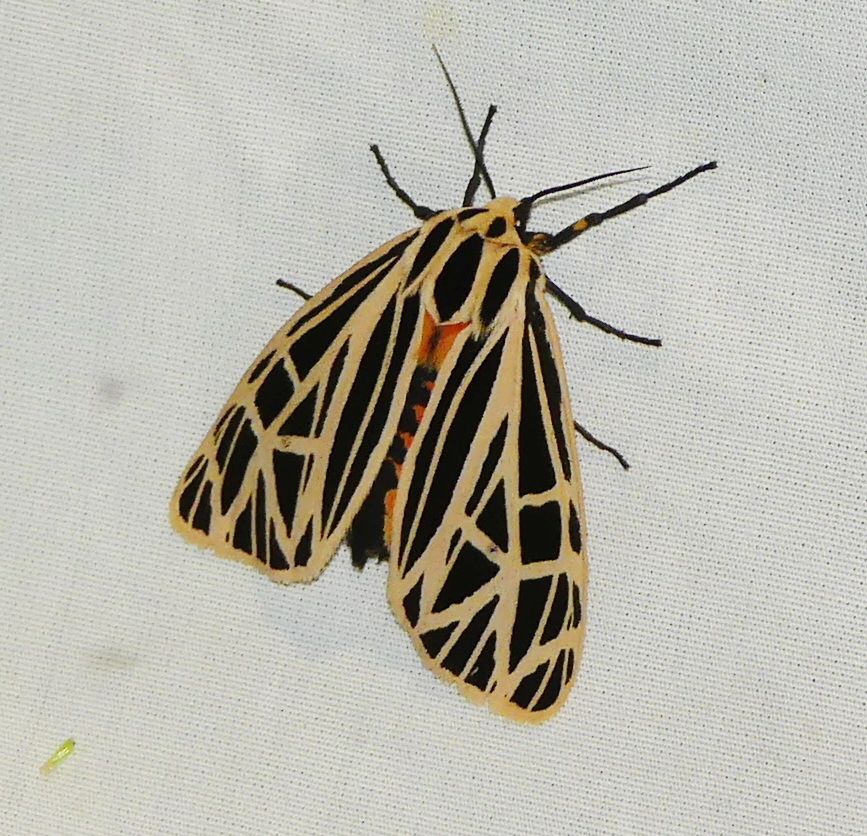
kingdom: Animalia
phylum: Arthropoda
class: Insecta
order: Lepidoptera
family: Erebidae
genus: Grammia
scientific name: Grammia virgo
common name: Virgin tiger moth
